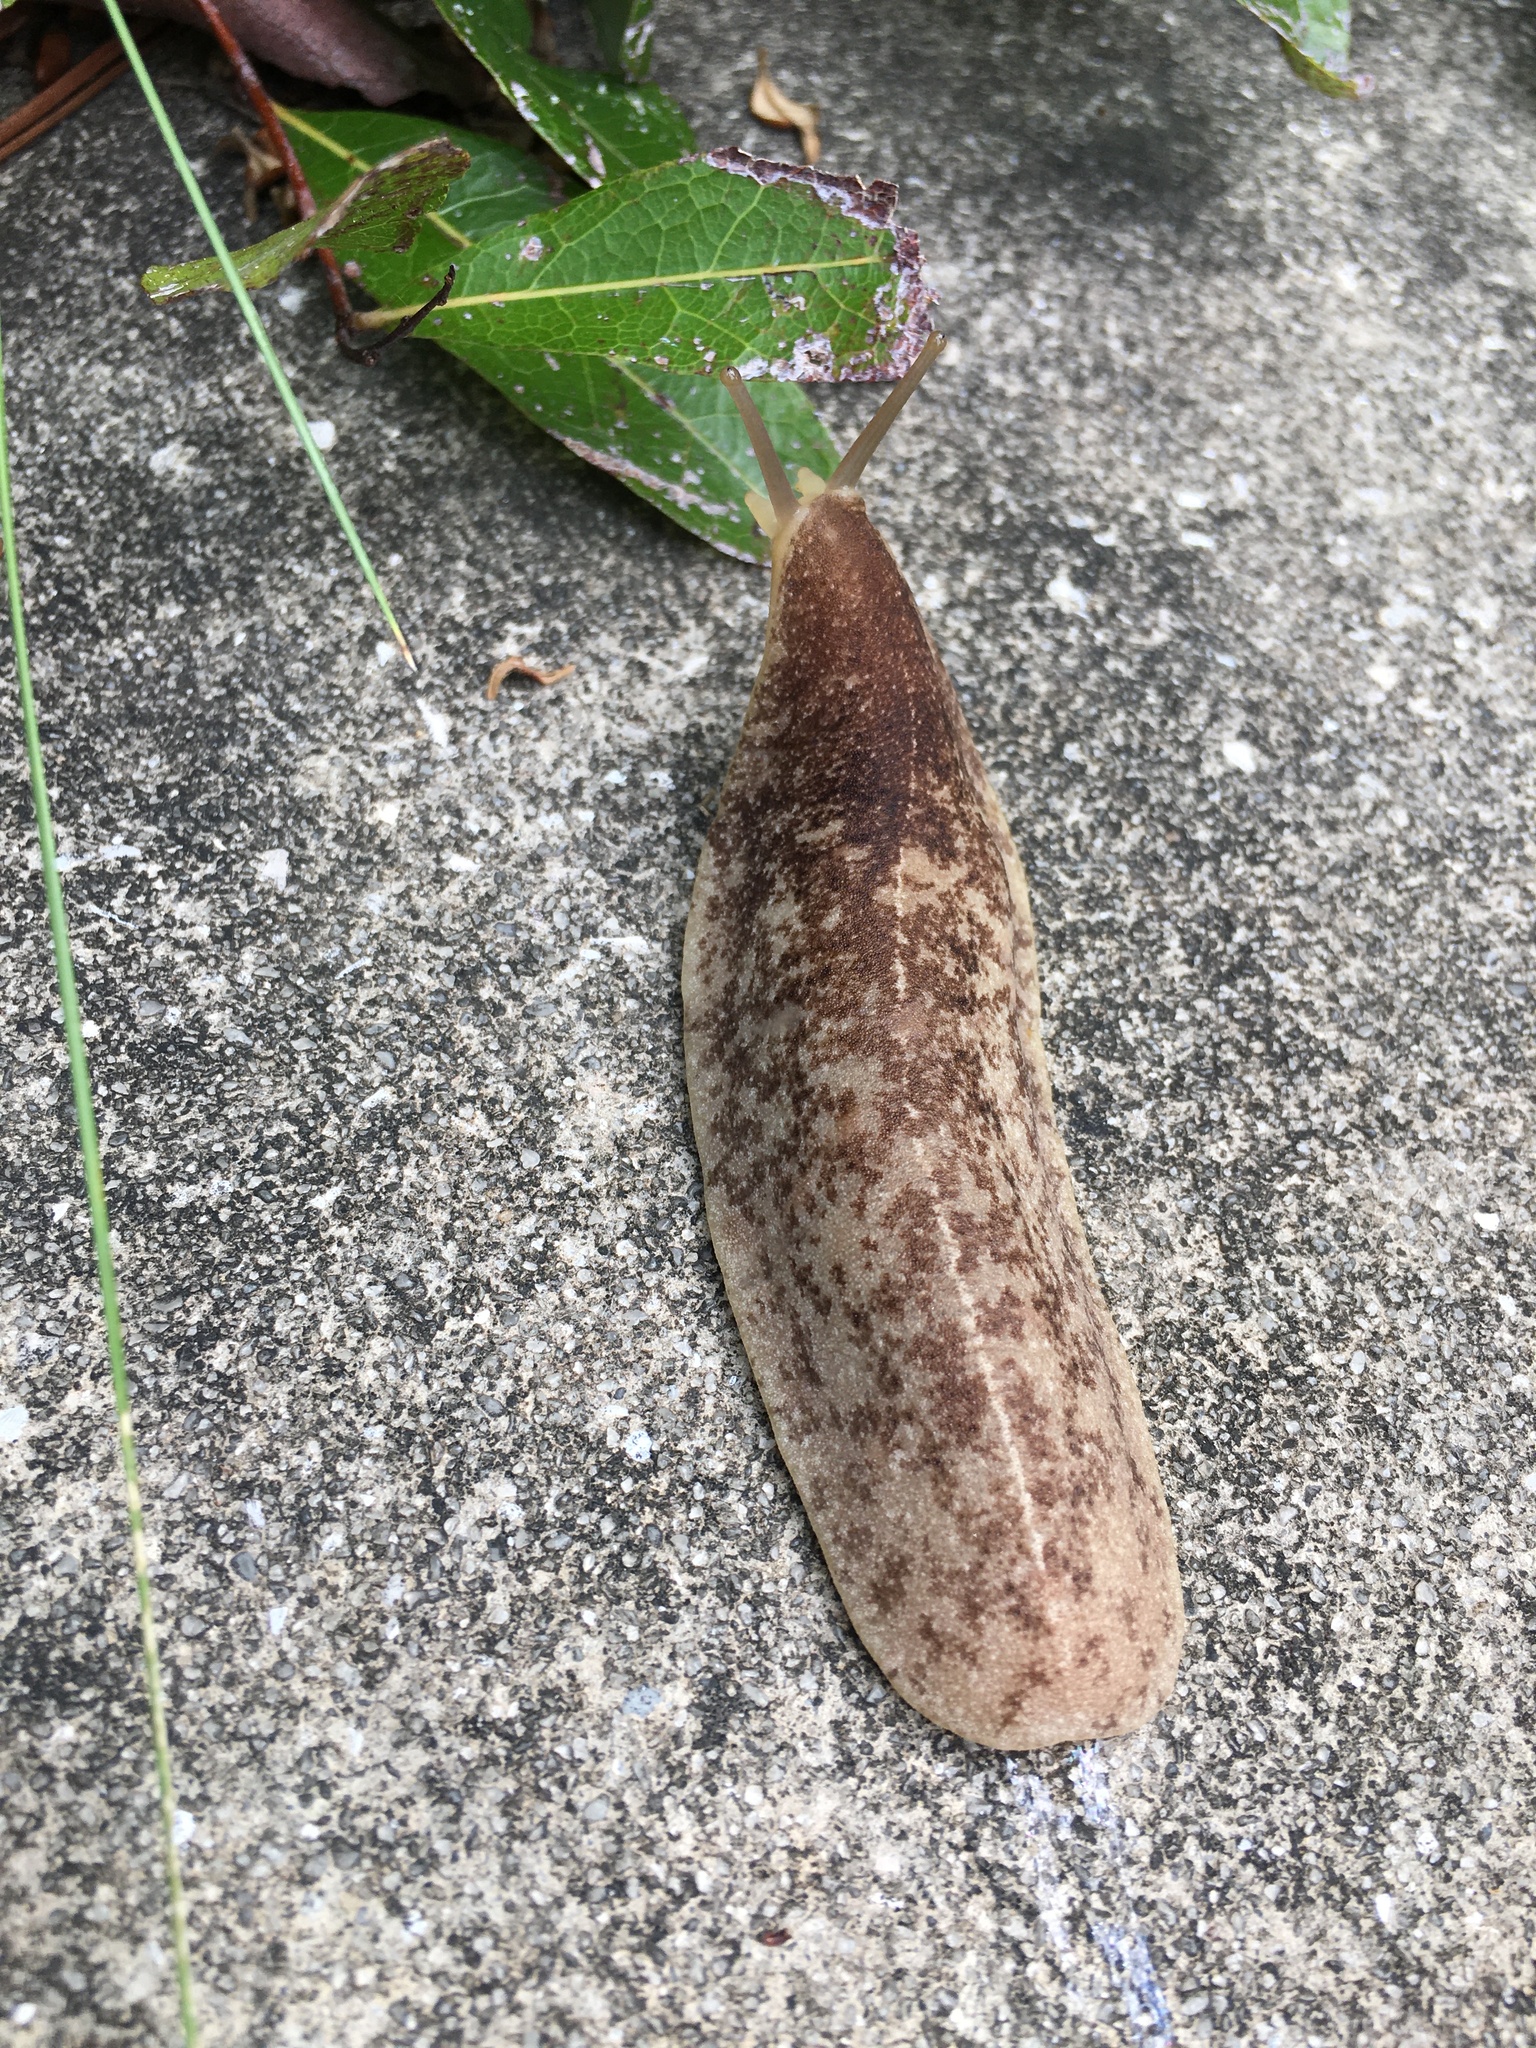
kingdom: Animalia
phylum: Mollusca
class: Gastropoda
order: Systellommatophora
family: Veronicellidae
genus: Leidyula
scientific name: Leidyula floridana
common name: Florida leatherleaf
